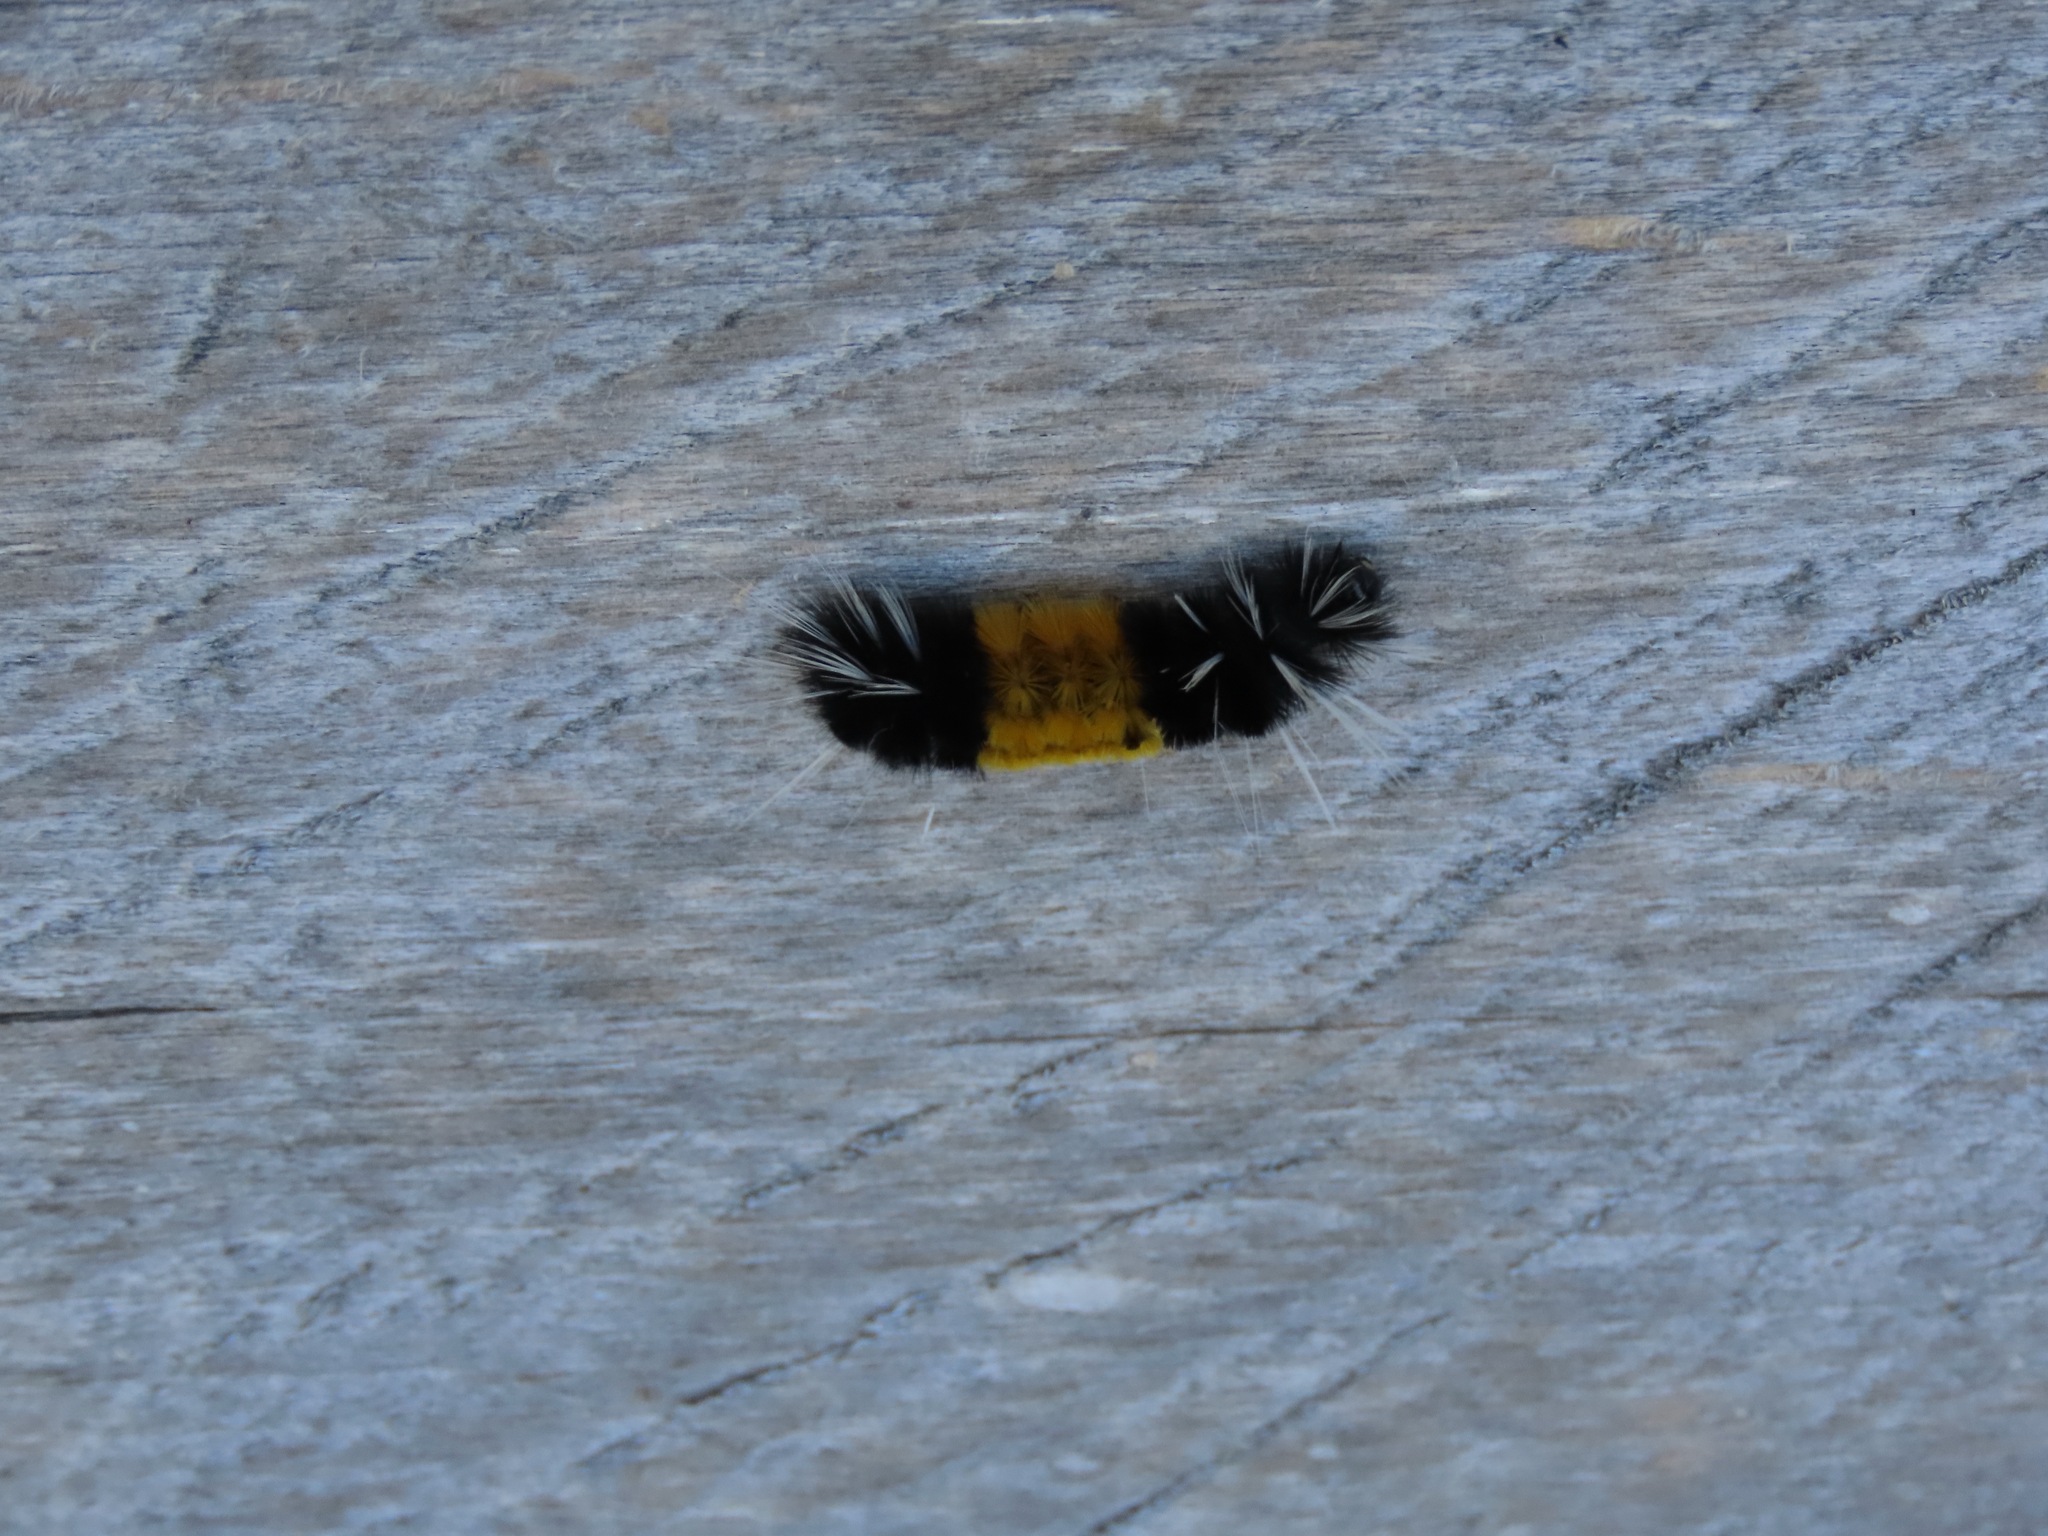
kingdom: Animalia
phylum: Arthropoda
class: Insecta
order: Lepidoptera
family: Erebidae
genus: Lophocampa
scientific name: Lophocampa maculata
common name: Spotted tussock moth
